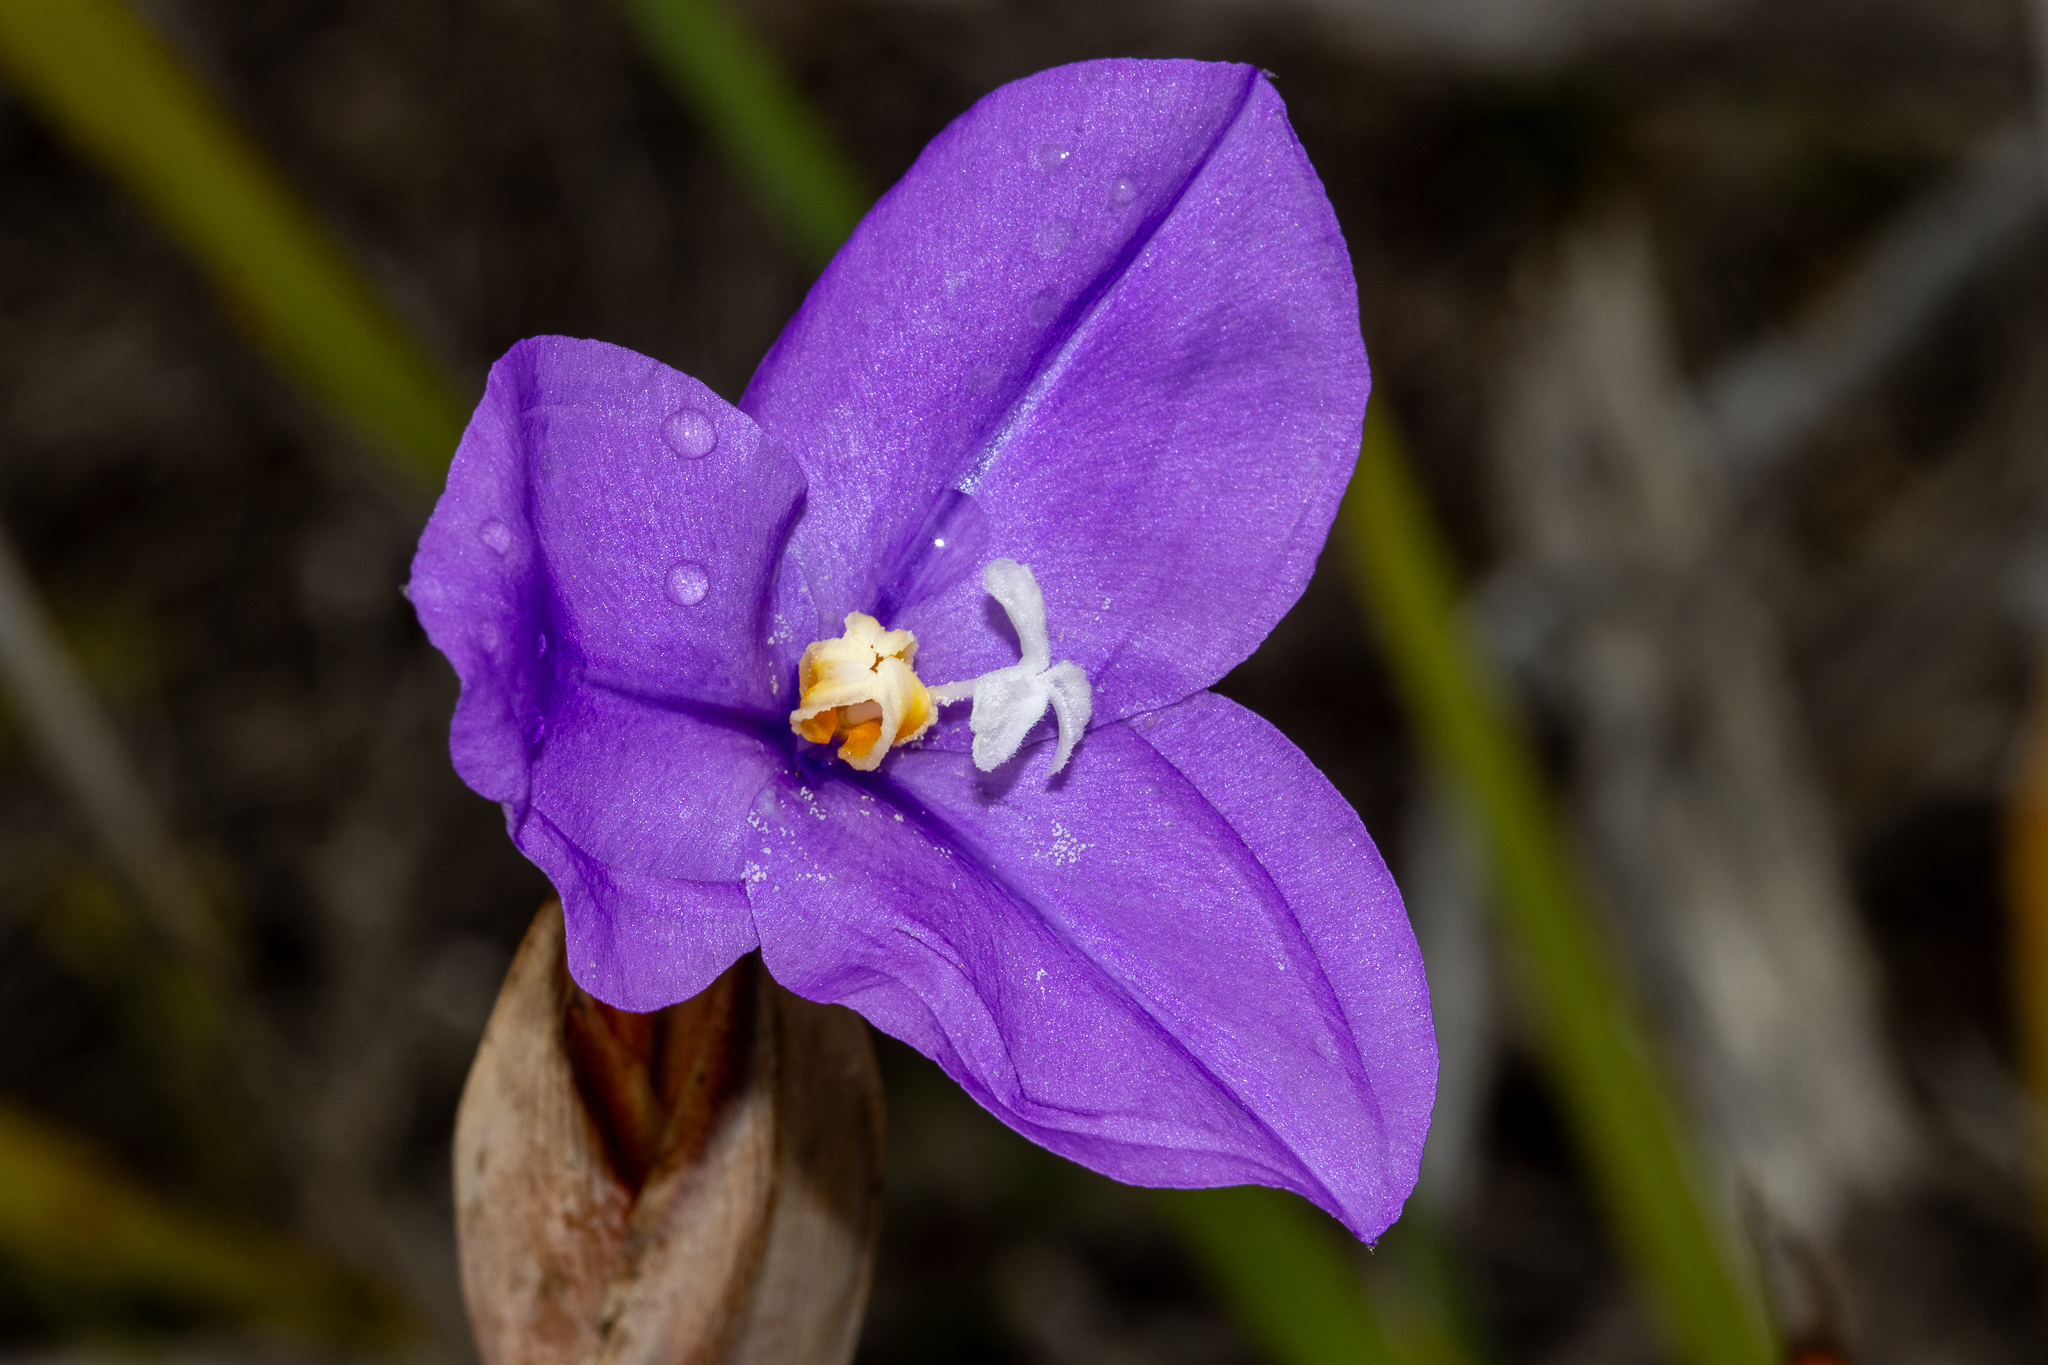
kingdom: Plantae
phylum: Tracheophyta
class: Liliopsida
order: Asparagales
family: Iridaceae
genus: Patersonia
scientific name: Patersonia occidentalis
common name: Long purple-flag
